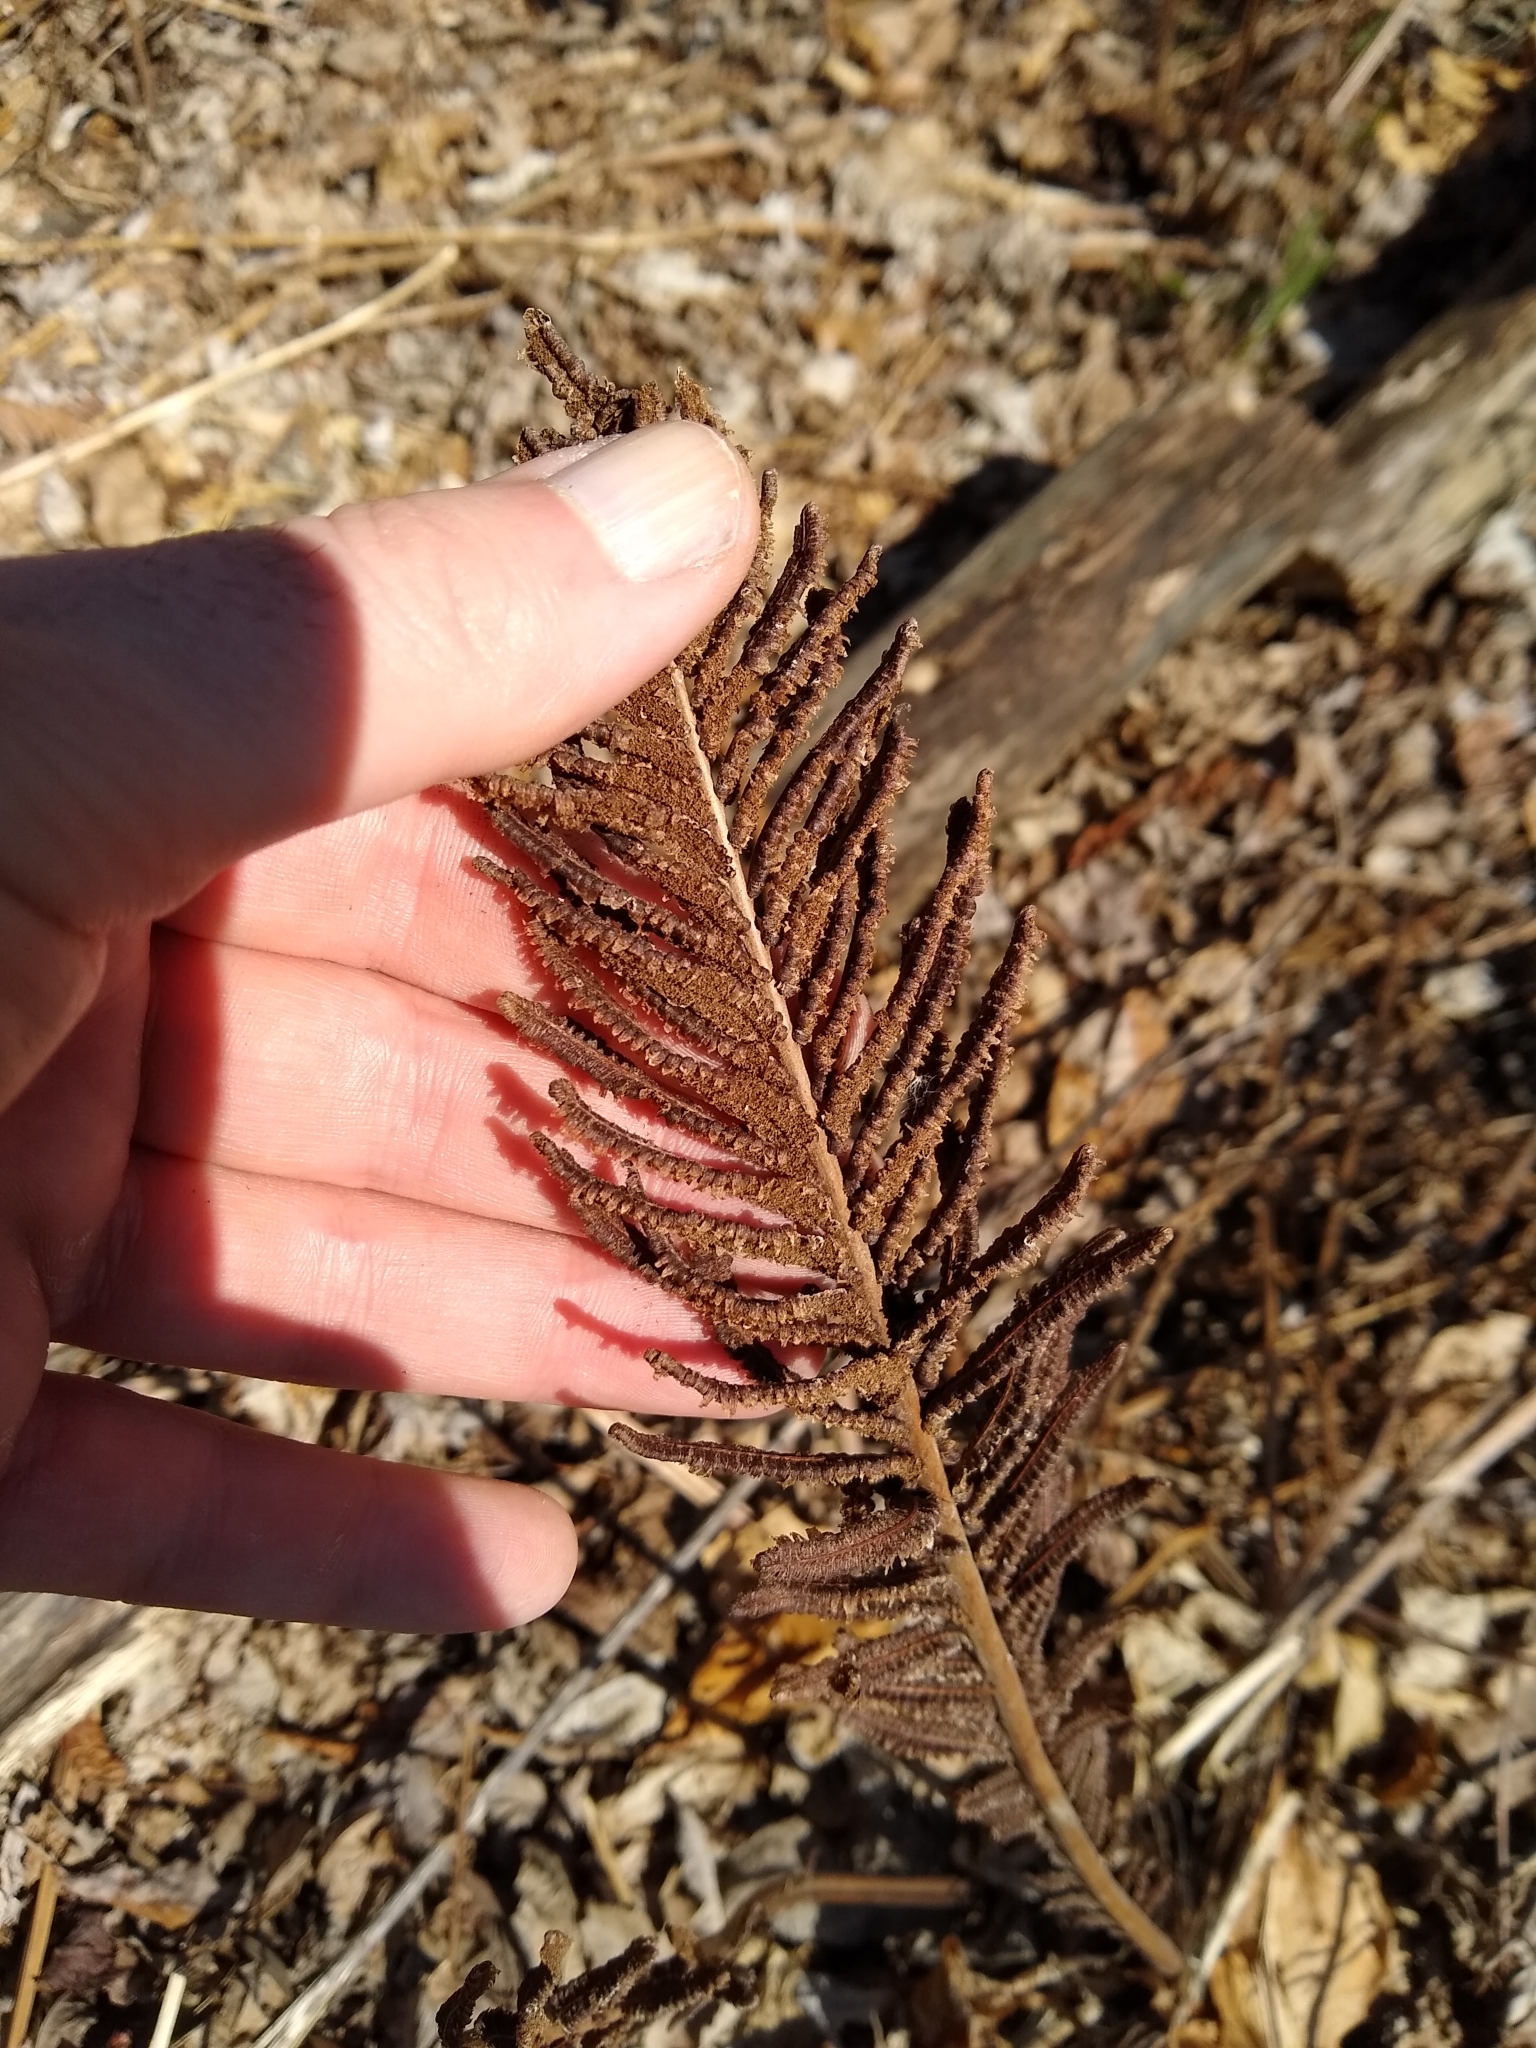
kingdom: Plantae
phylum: Tracheophyta
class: Polypodiopsida
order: Polypodiales
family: Onocleaceae
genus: Matteuccia
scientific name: Matteuccia struthiopteris
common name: Ostrich fern
